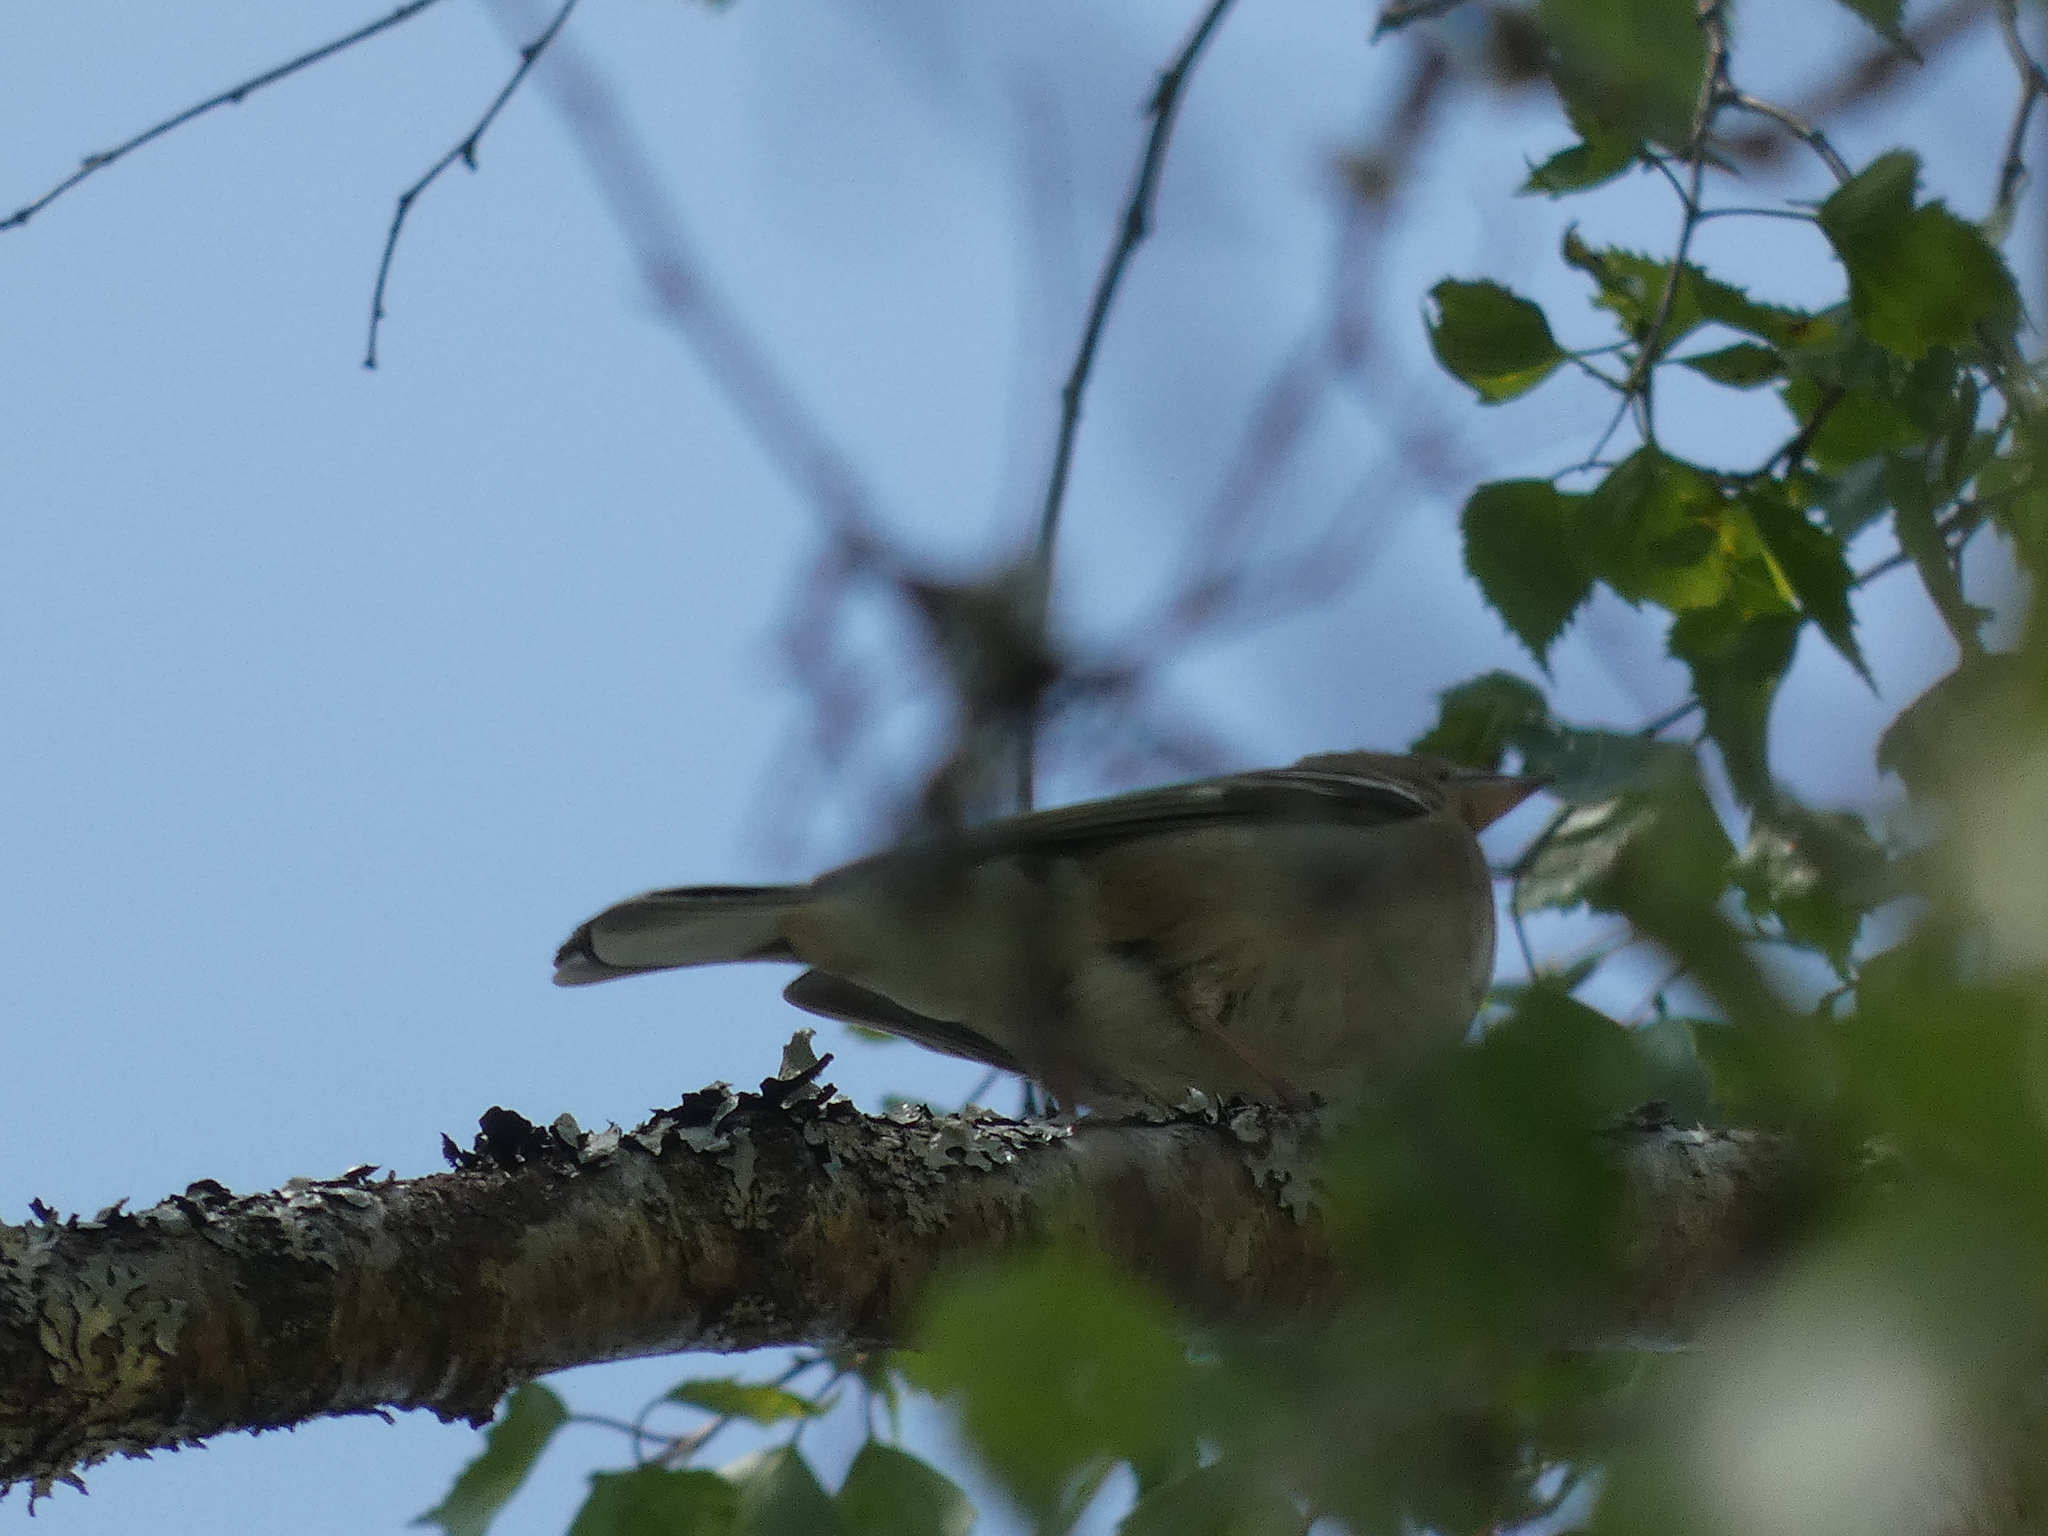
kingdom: Animalia
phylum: Chordata
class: Aves
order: Passeriformes
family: Fringillidae
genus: Fringilla
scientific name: Fringilla coelebs
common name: Common chaffinch
